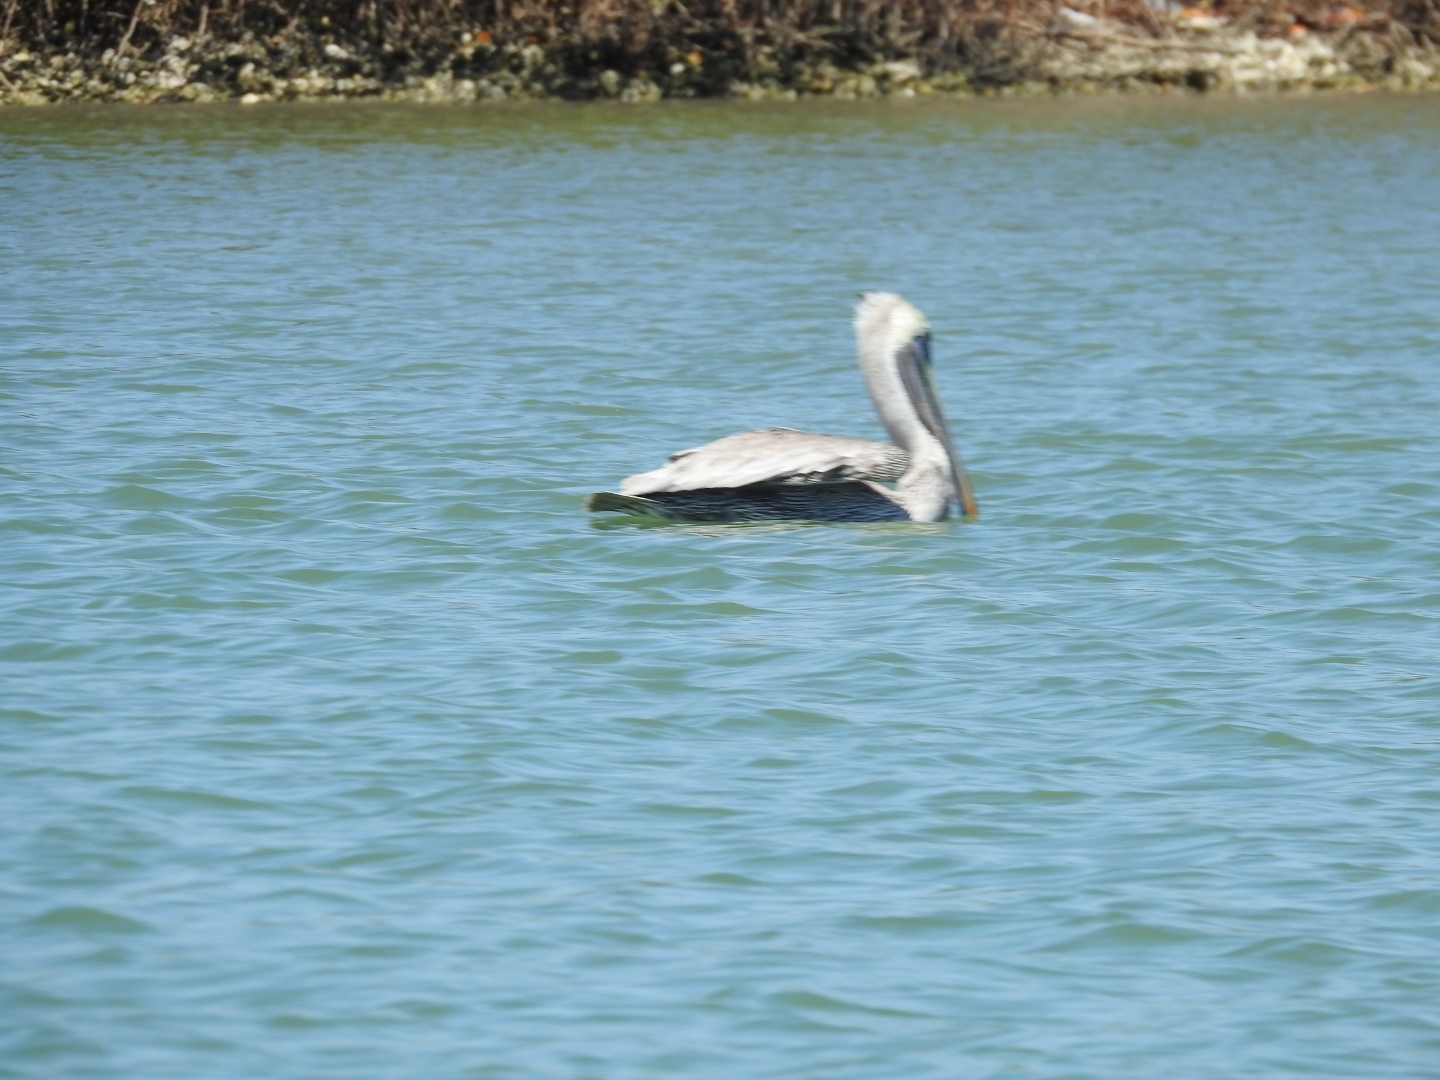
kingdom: Animalia
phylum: Chordata
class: Aves
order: Pelecaniformes
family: Pelecanidae
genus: Pelecanus
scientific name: Pelecanus occidentalis
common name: Brown pelican
